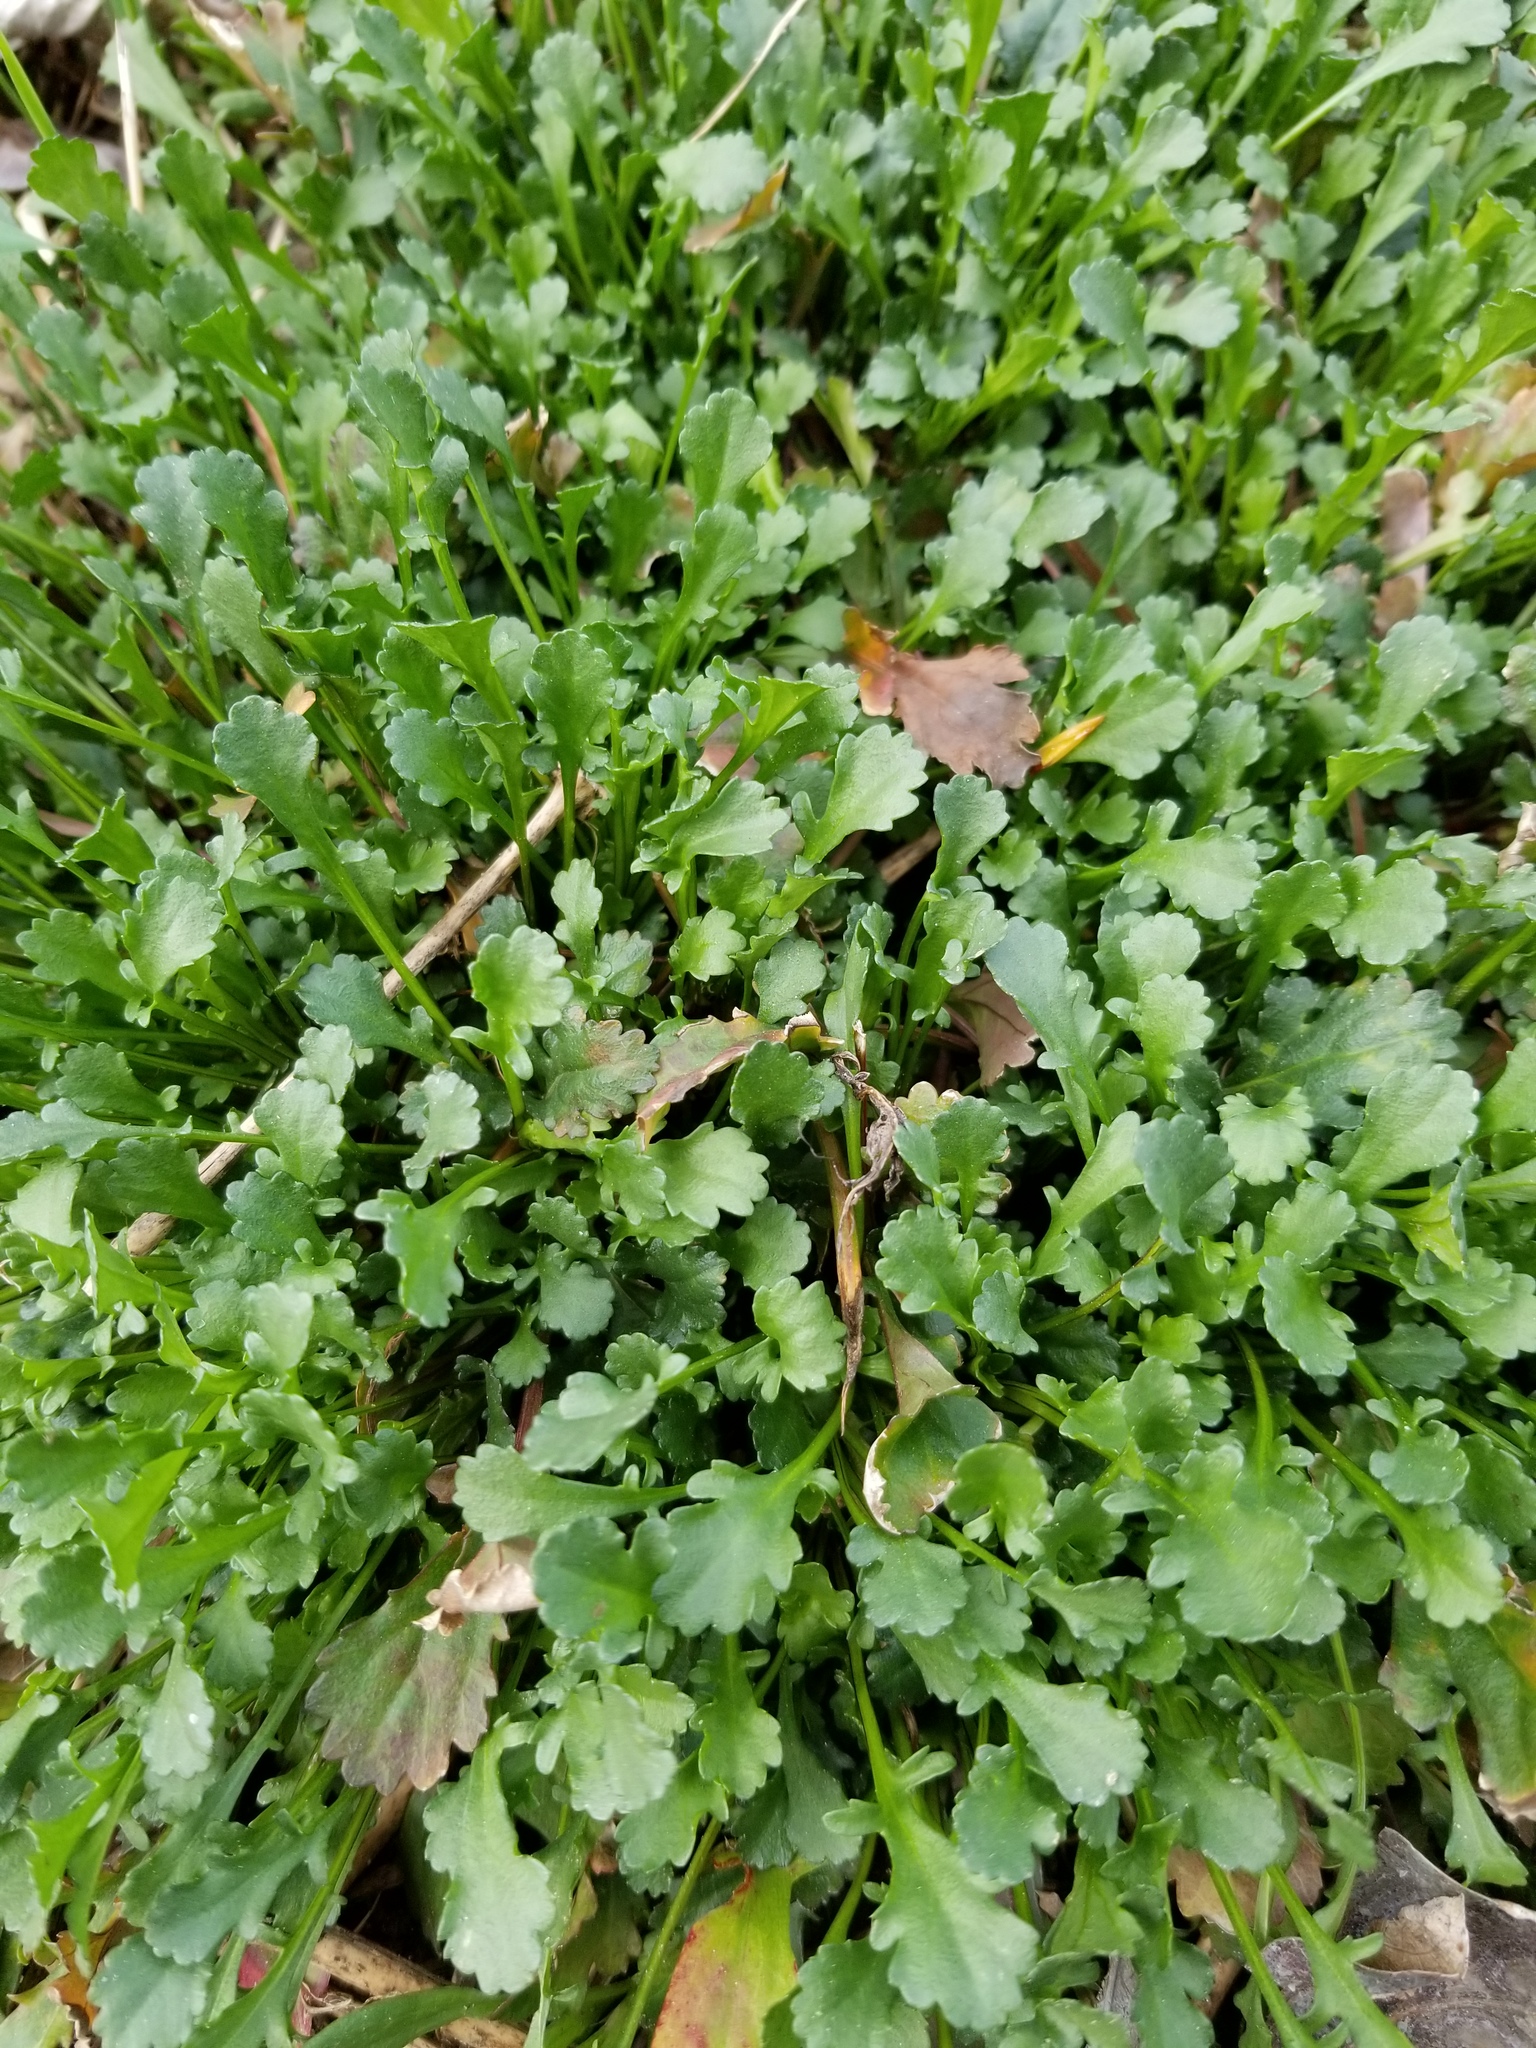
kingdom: Plantae
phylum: Tracheophyta
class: Magnoliopsida
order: Asterales
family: Asteraceae
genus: Leucanthemum
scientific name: Leucanthemum vulgare
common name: Oxeye daisy
